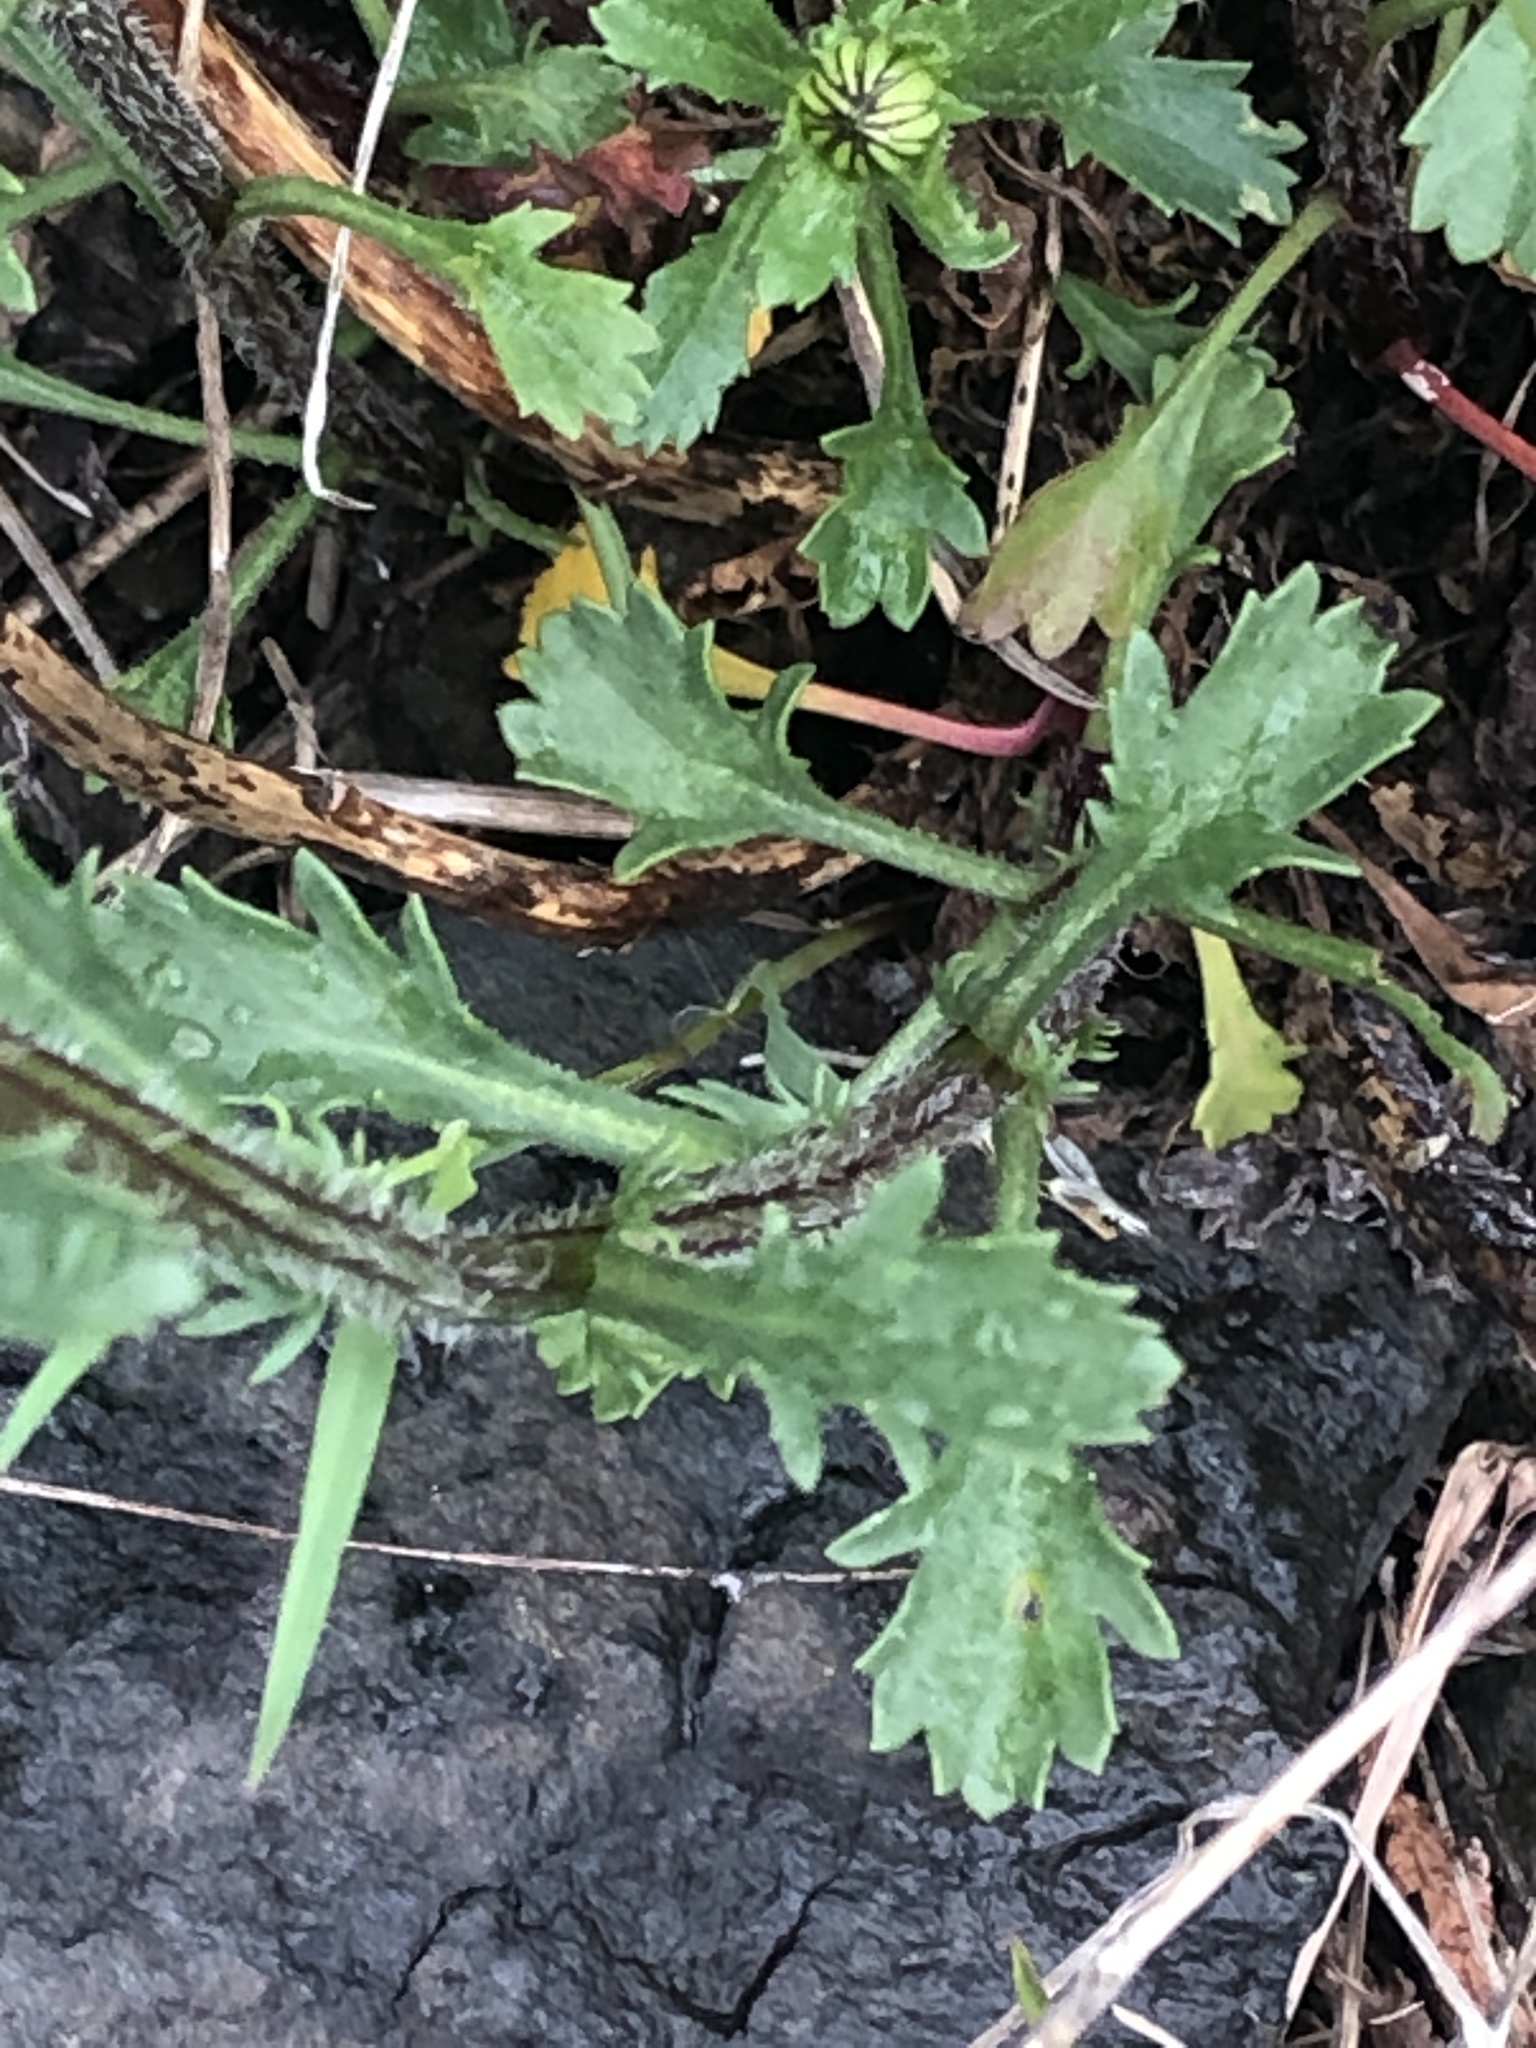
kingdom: Plantae
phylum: Tracheophyta
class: Magnoliopsida
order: Asterales
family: Asteraceae
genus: Leucanthemum
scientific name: Leucanthemum vulgare
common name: Oxeye daisy
